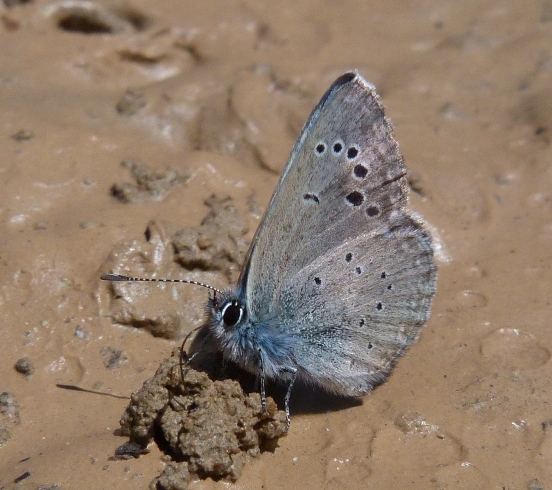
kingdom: Animalia
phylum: Arthropoda
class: Insecta
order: Lepidoptera
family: Lycaenidae
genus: Glaucopsyche
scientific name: Glaucopsyche melanops
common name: Black-eyed blue
